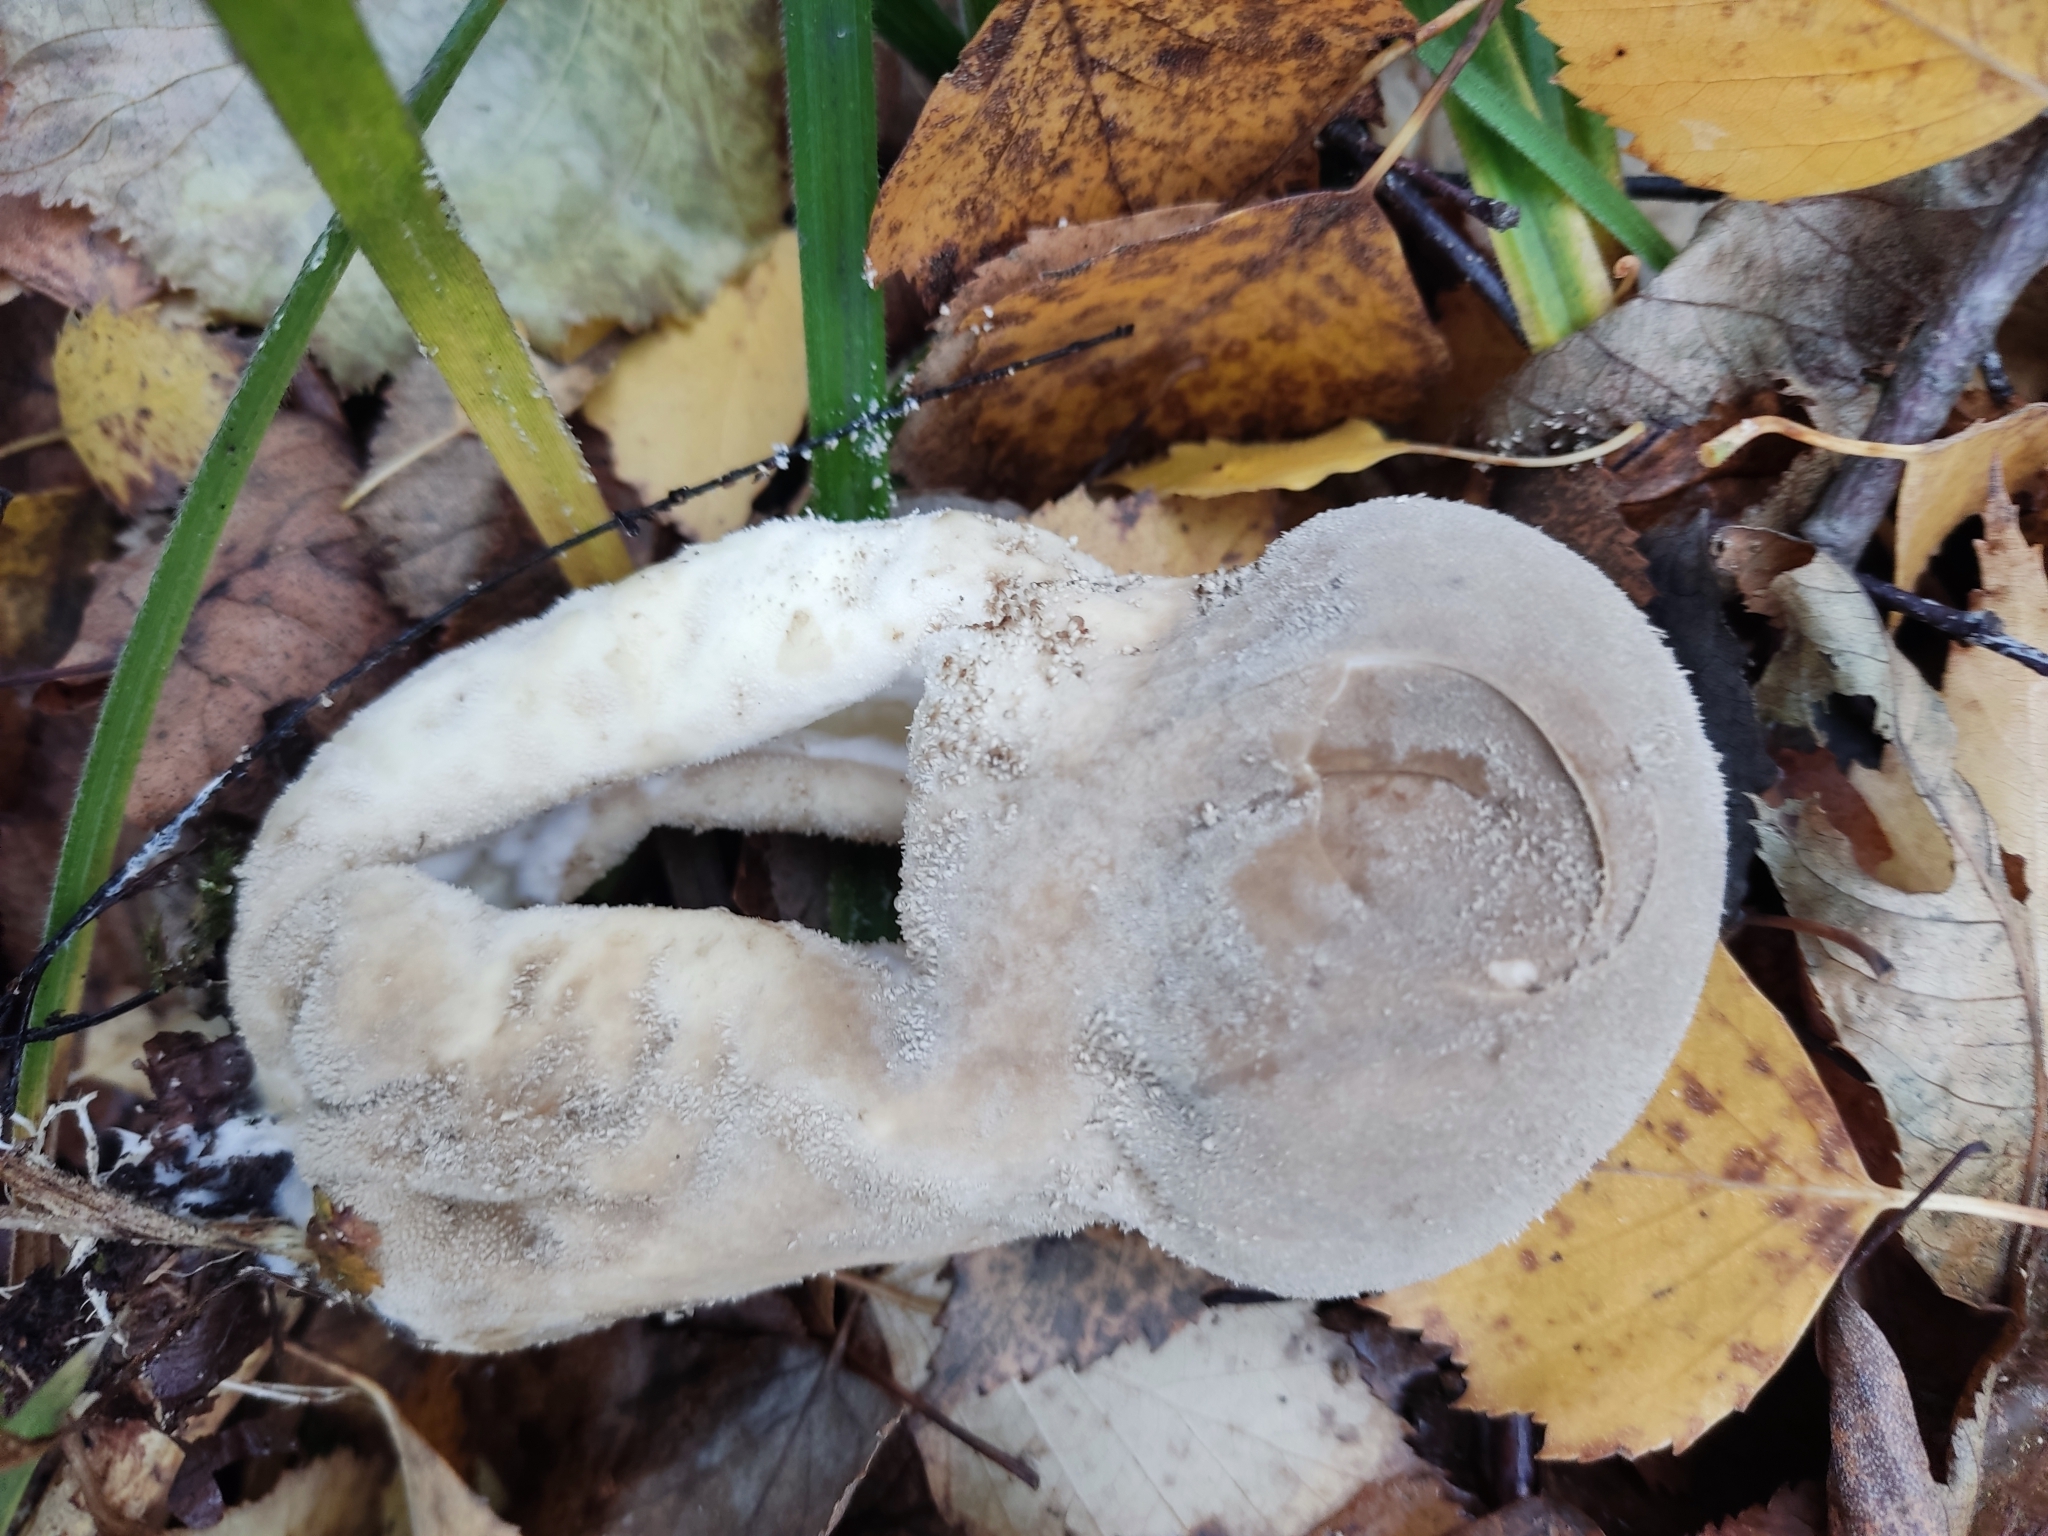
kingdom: Fungi
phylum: Basidiomycota
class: Agaricomycetes
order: Agaricales
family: Lycoperdaceae
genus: Lycoperdon
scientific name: Lycoperdon excipuliforme
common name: Pestle puffball
